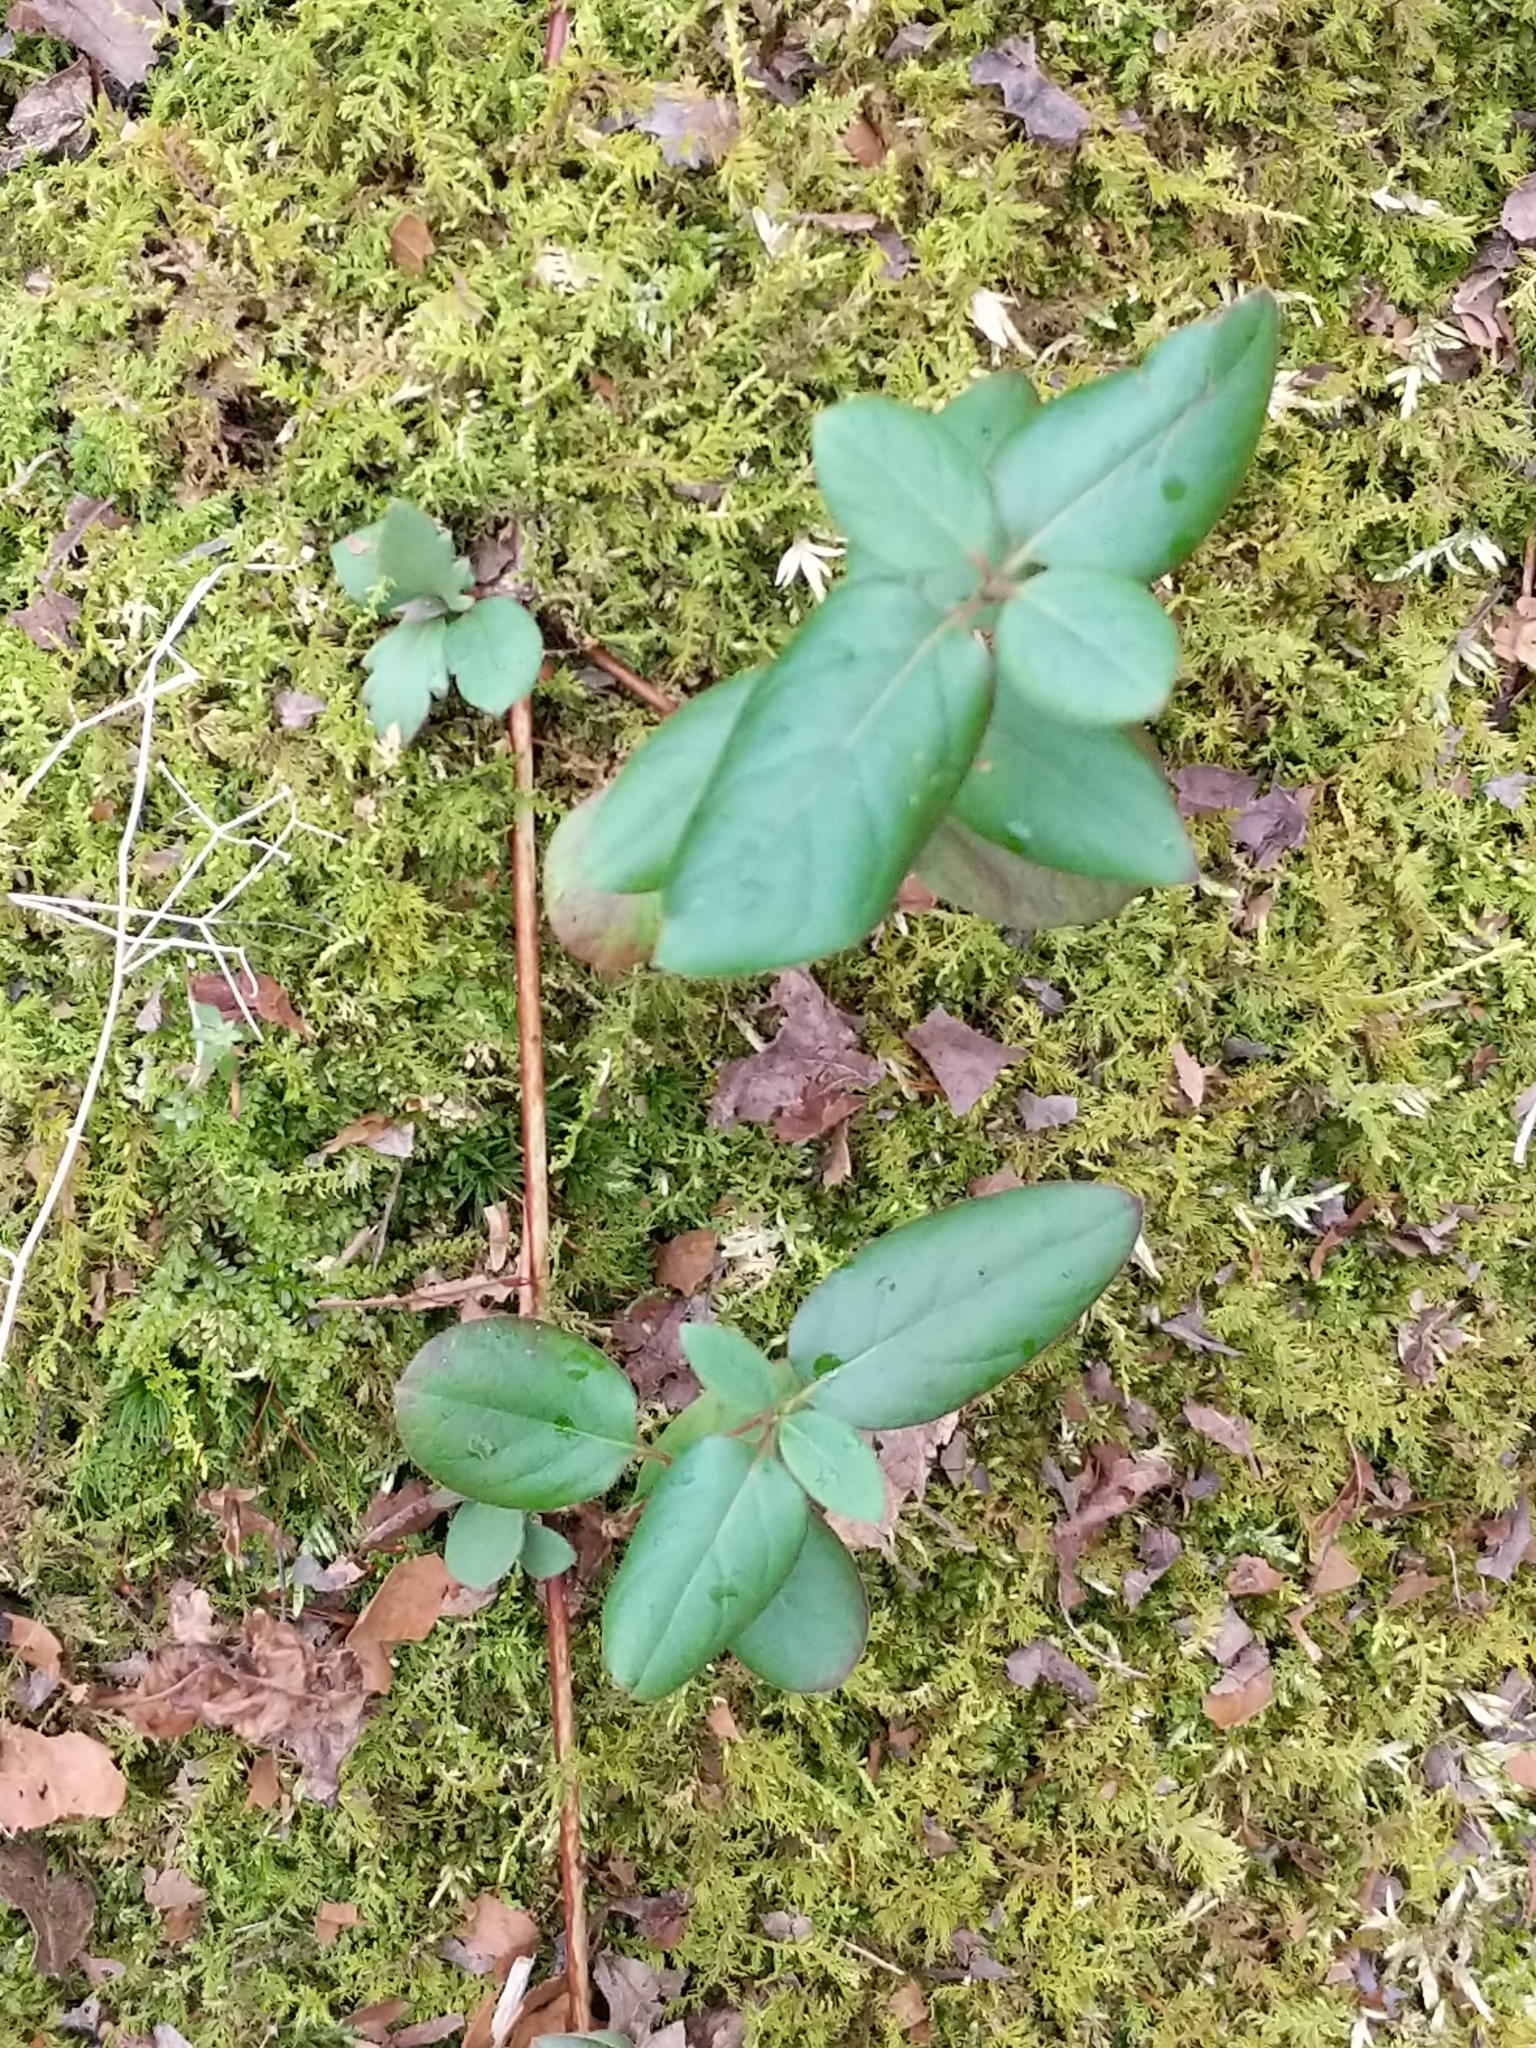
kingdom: Plantae
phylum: Tracheophyta
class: Magnoliopsida
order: Dipsacales
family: Caprifoliaceae
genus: Lonicera
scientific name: Lonicera japonica
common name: Japanese honeysuckle
